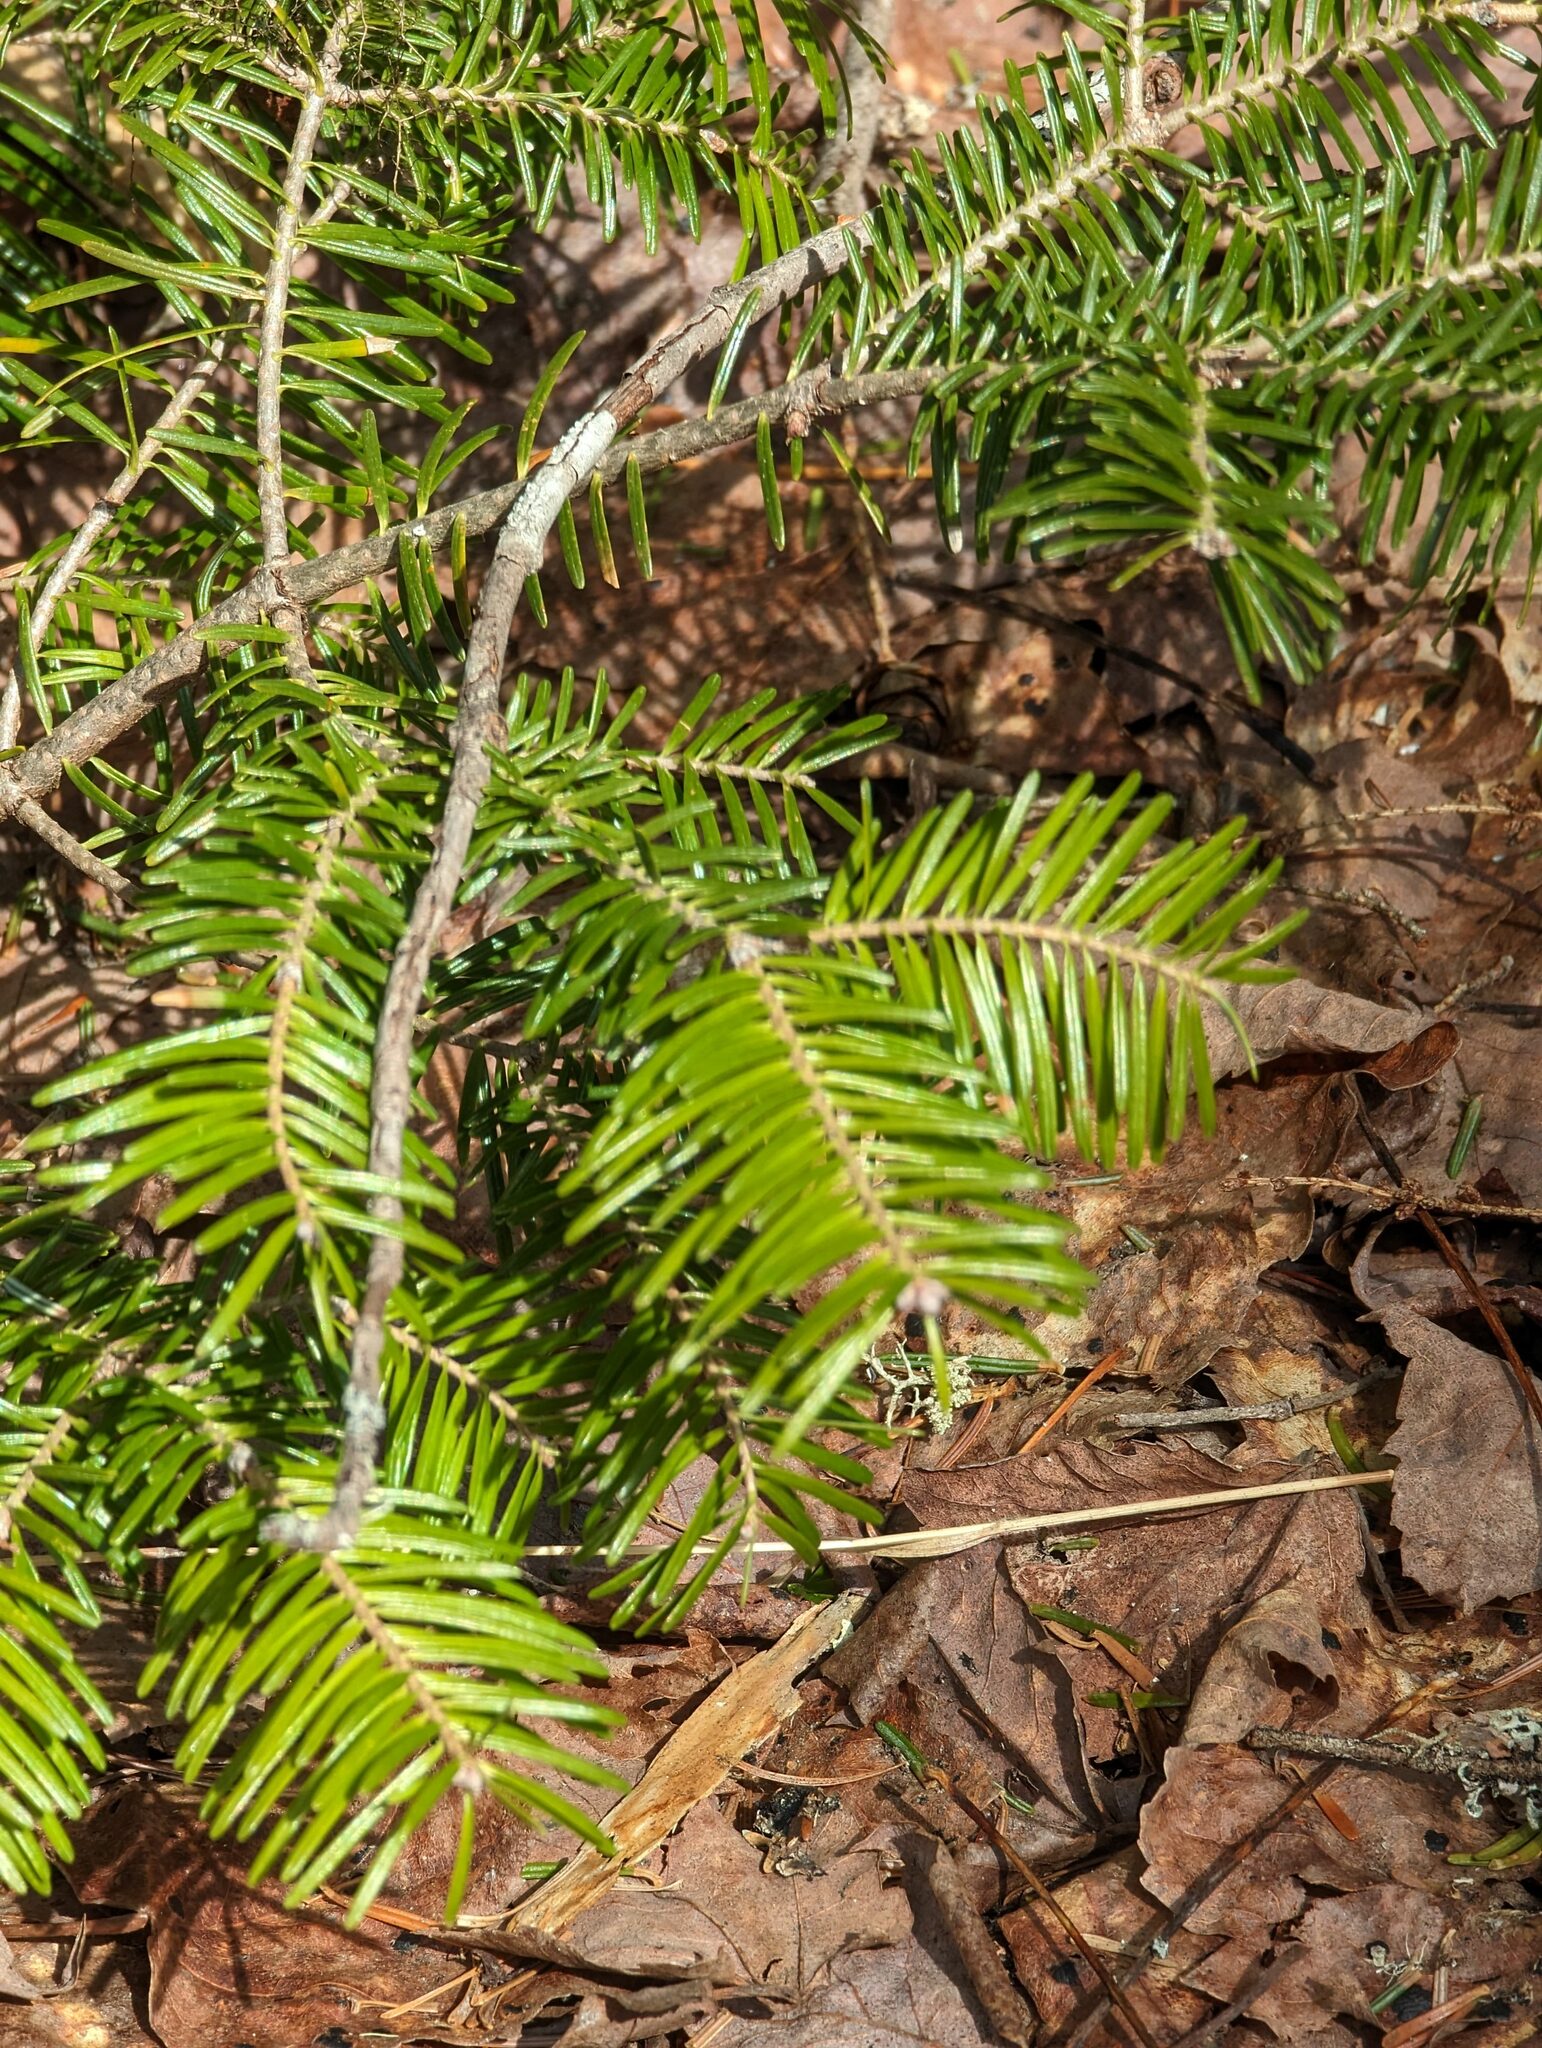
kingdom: Plantae
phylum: Tracheophyta
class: Pinopsida
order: Pinales
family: Pinaceae
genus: Abies
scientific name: Abies balsamea
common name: Balsam fir
